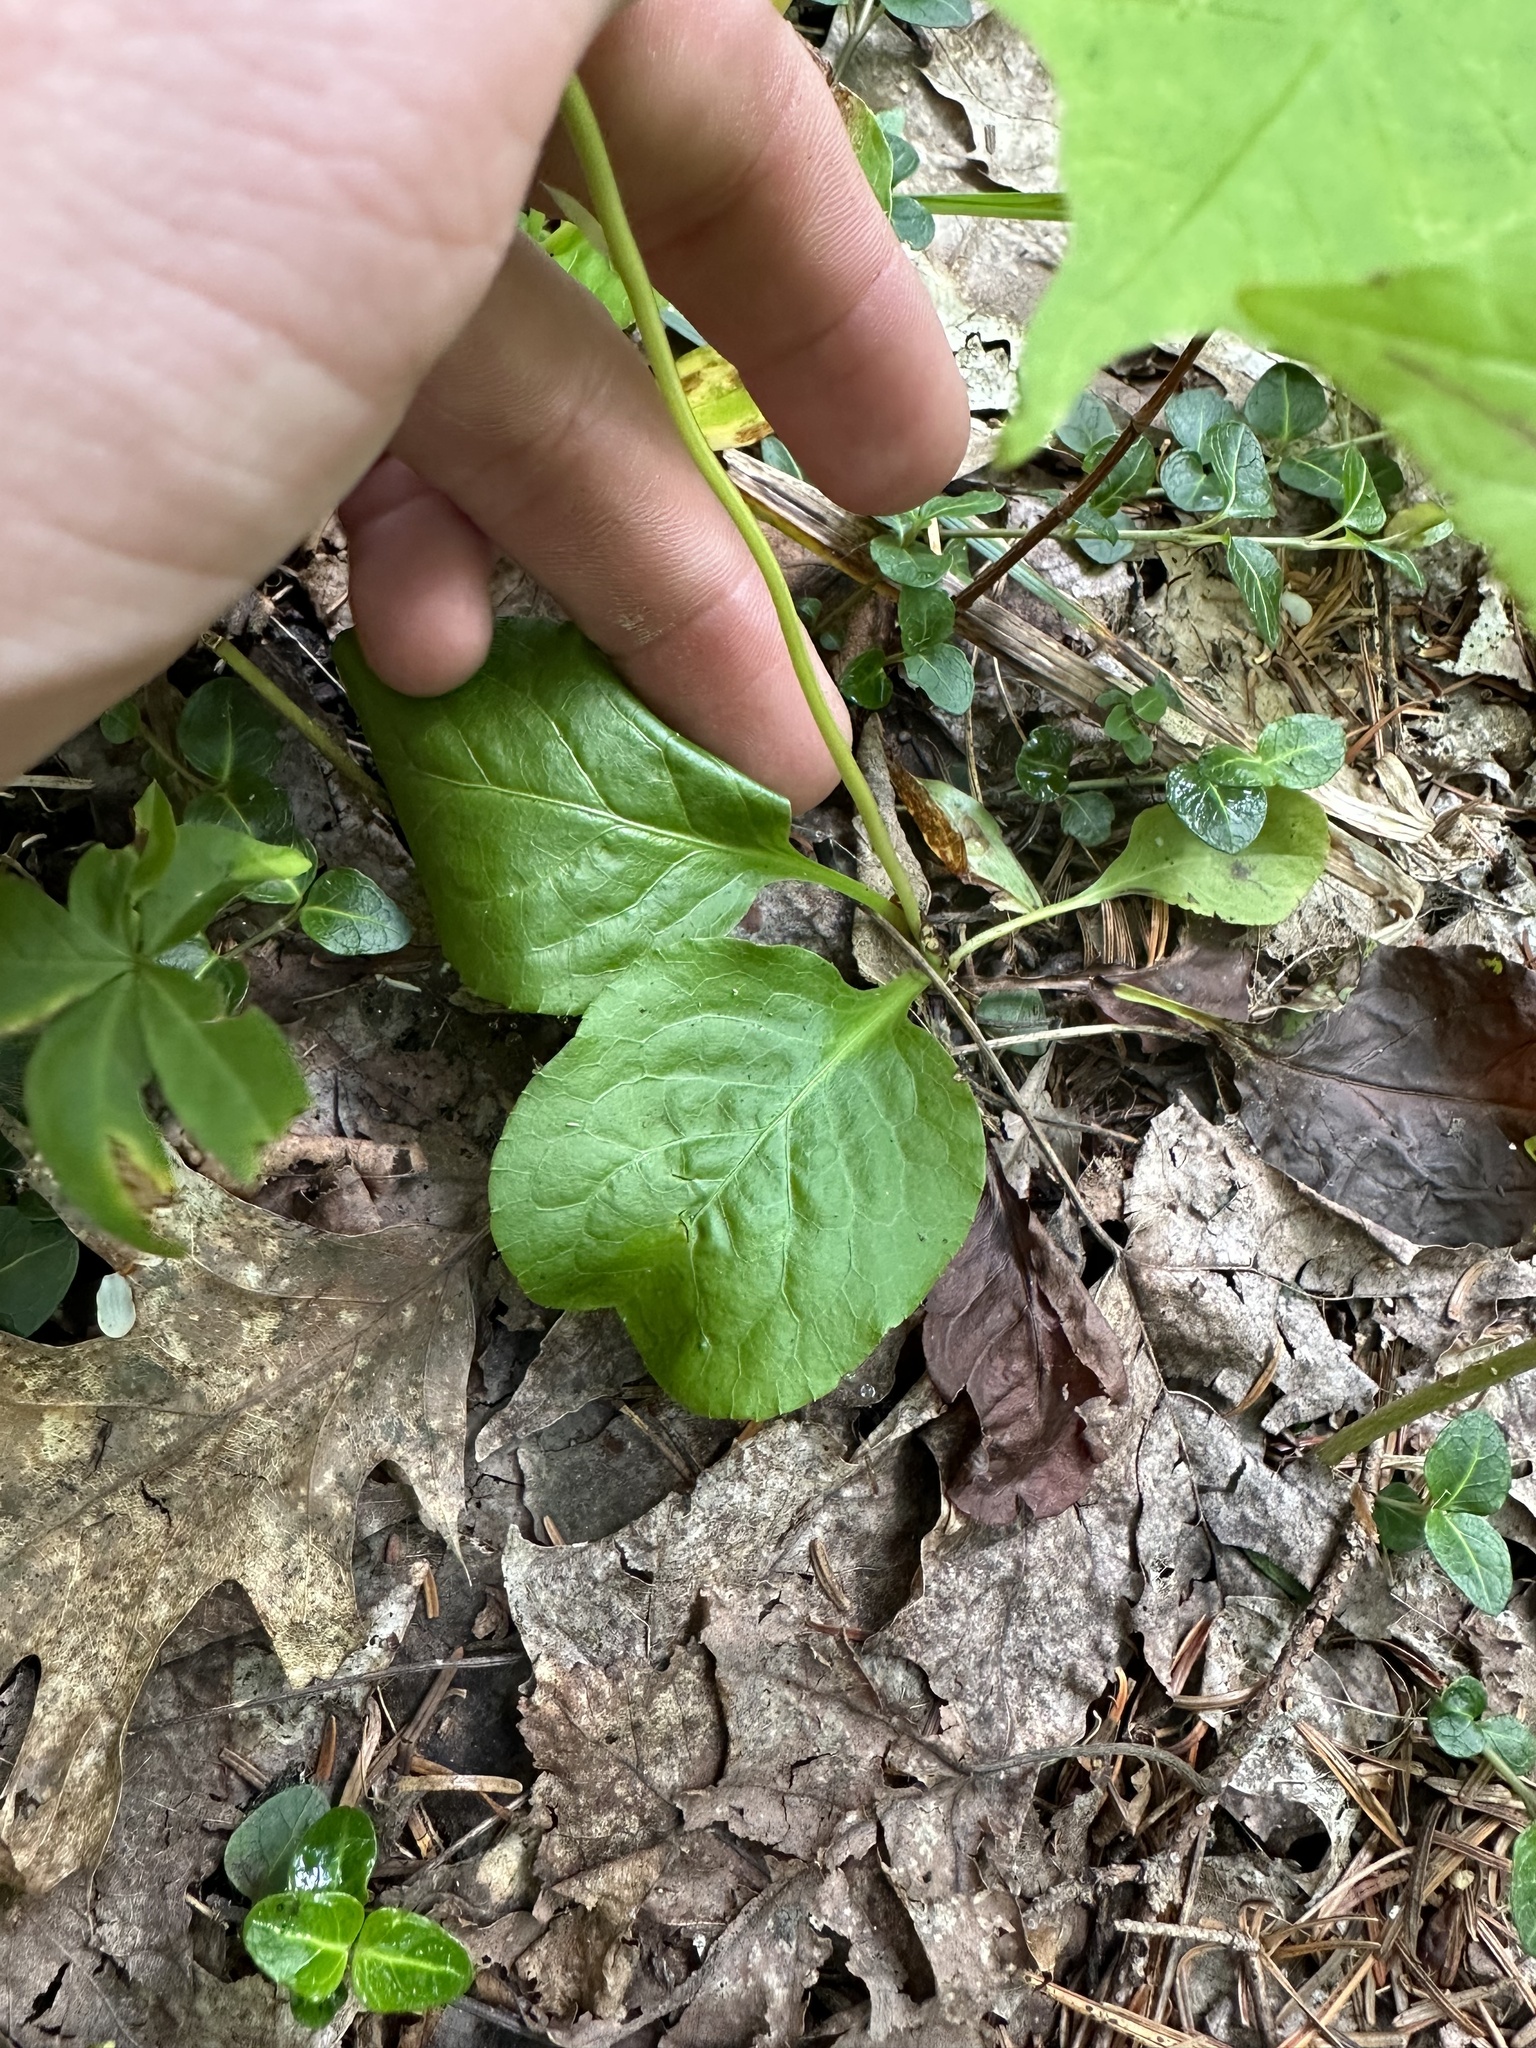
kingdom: Plantae
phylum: Tracheophyta
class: Magnoliopsida
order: Ericales
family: Ericaceae
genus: Pyrola
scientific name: Pyrola elliptica
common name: Shinleaf
